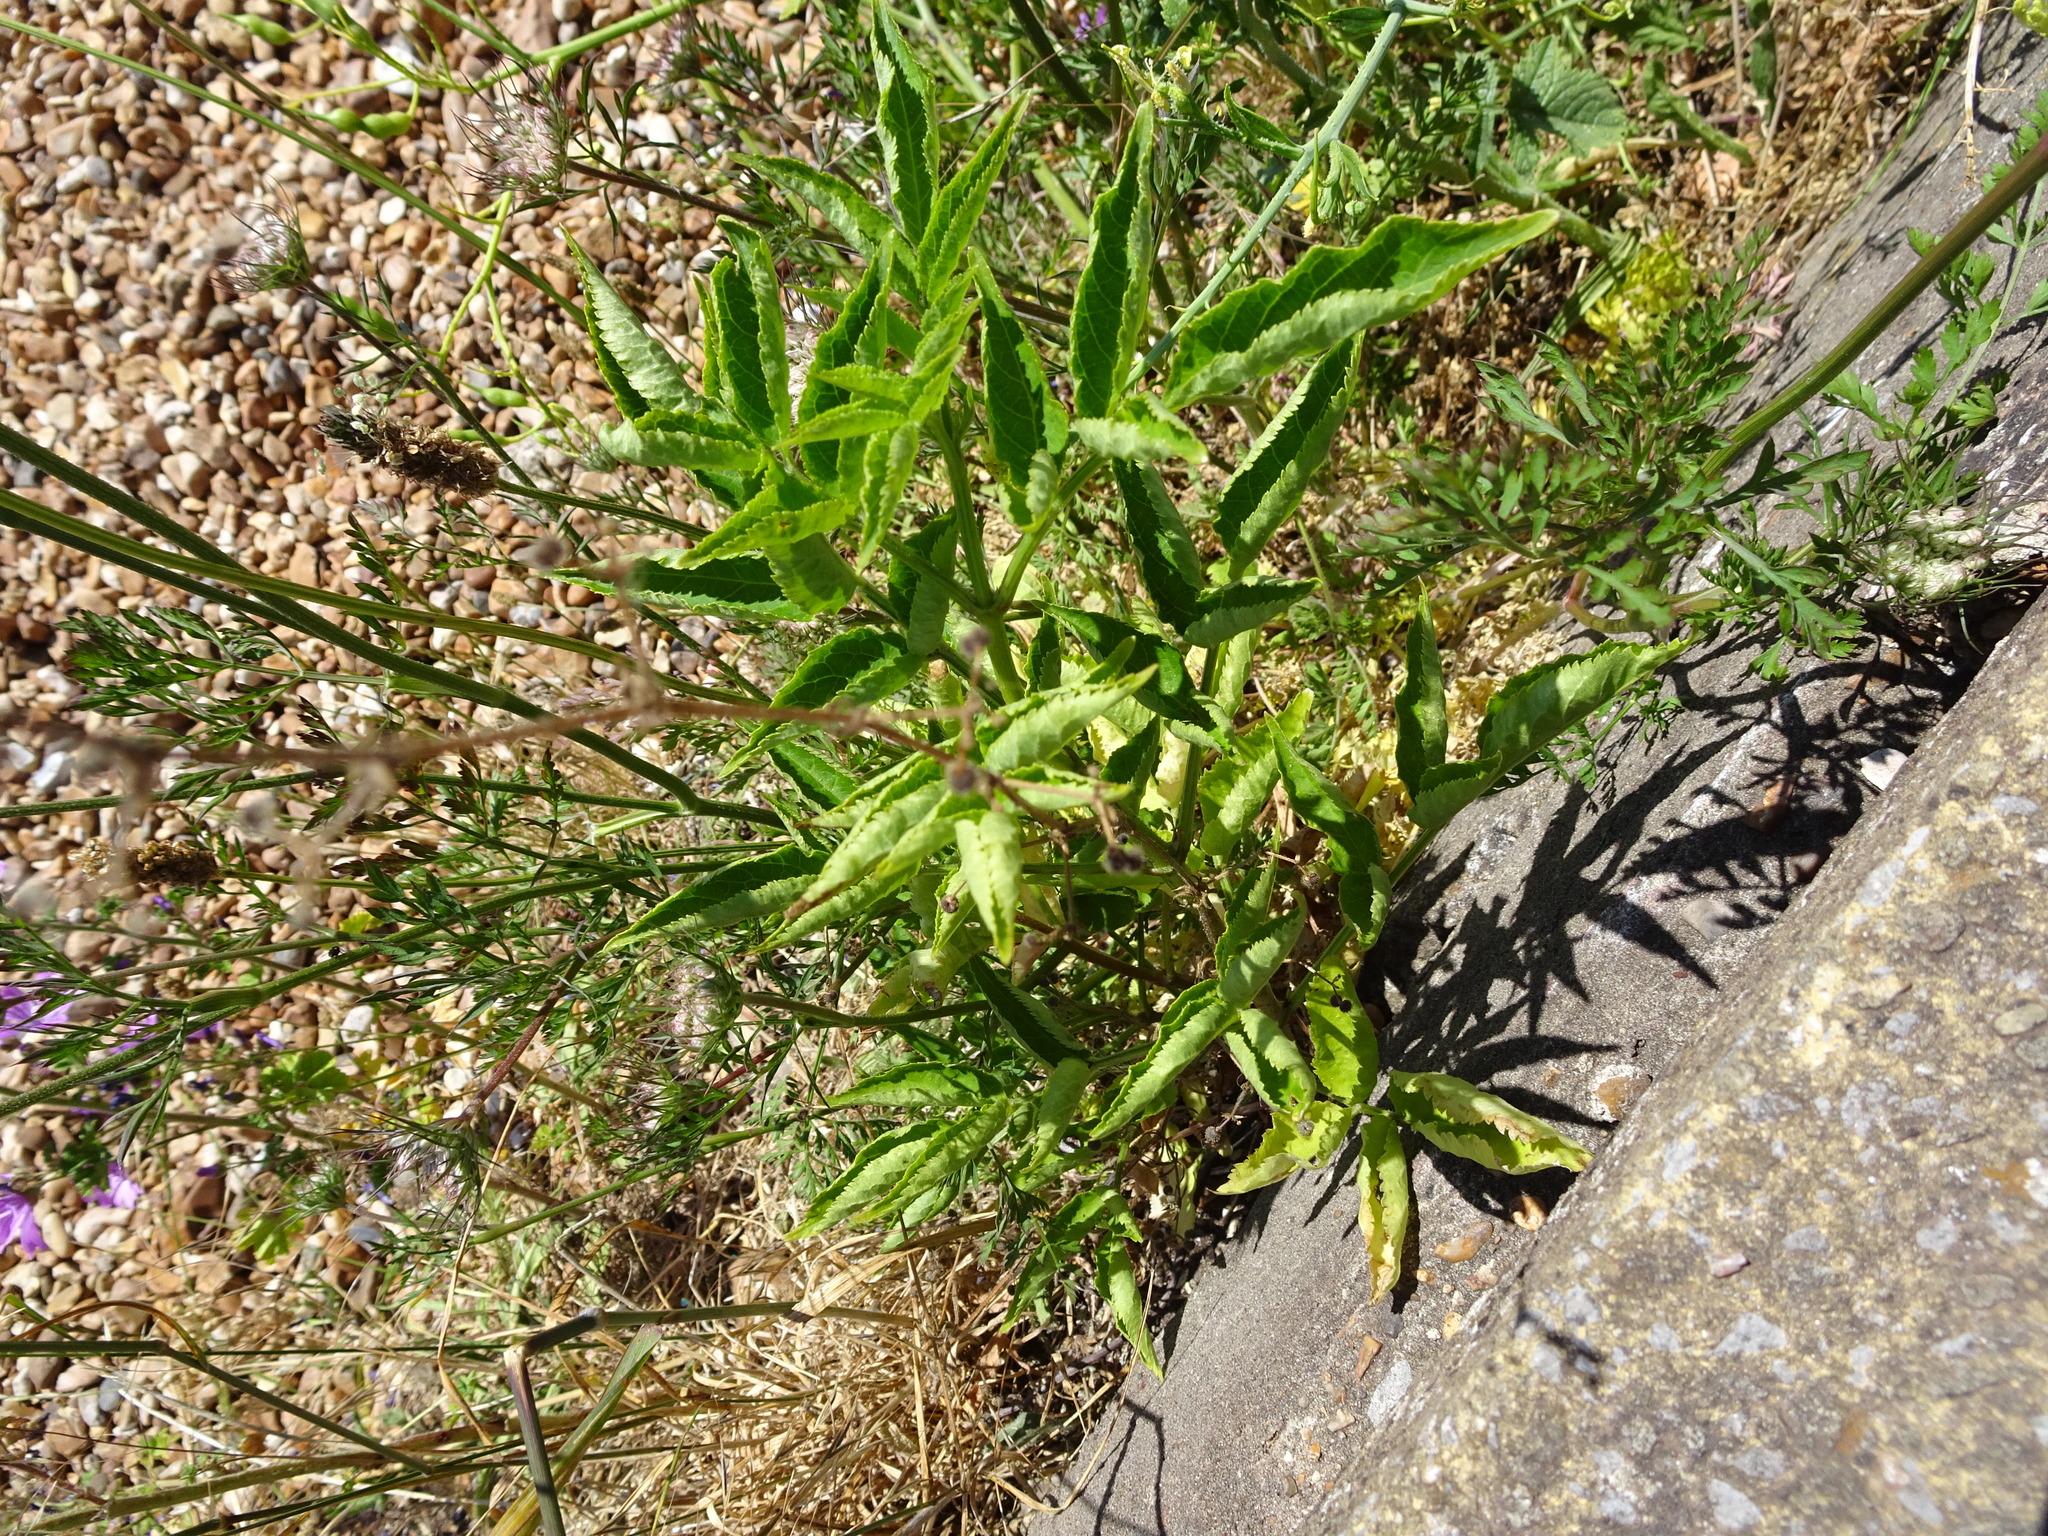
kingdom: Plantae
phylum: Tracheophyta
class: Magnoliopsida
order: Dipsacales
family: Viburnaceae
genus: Sambucus
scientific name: Sambucus nigra
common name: Elder
